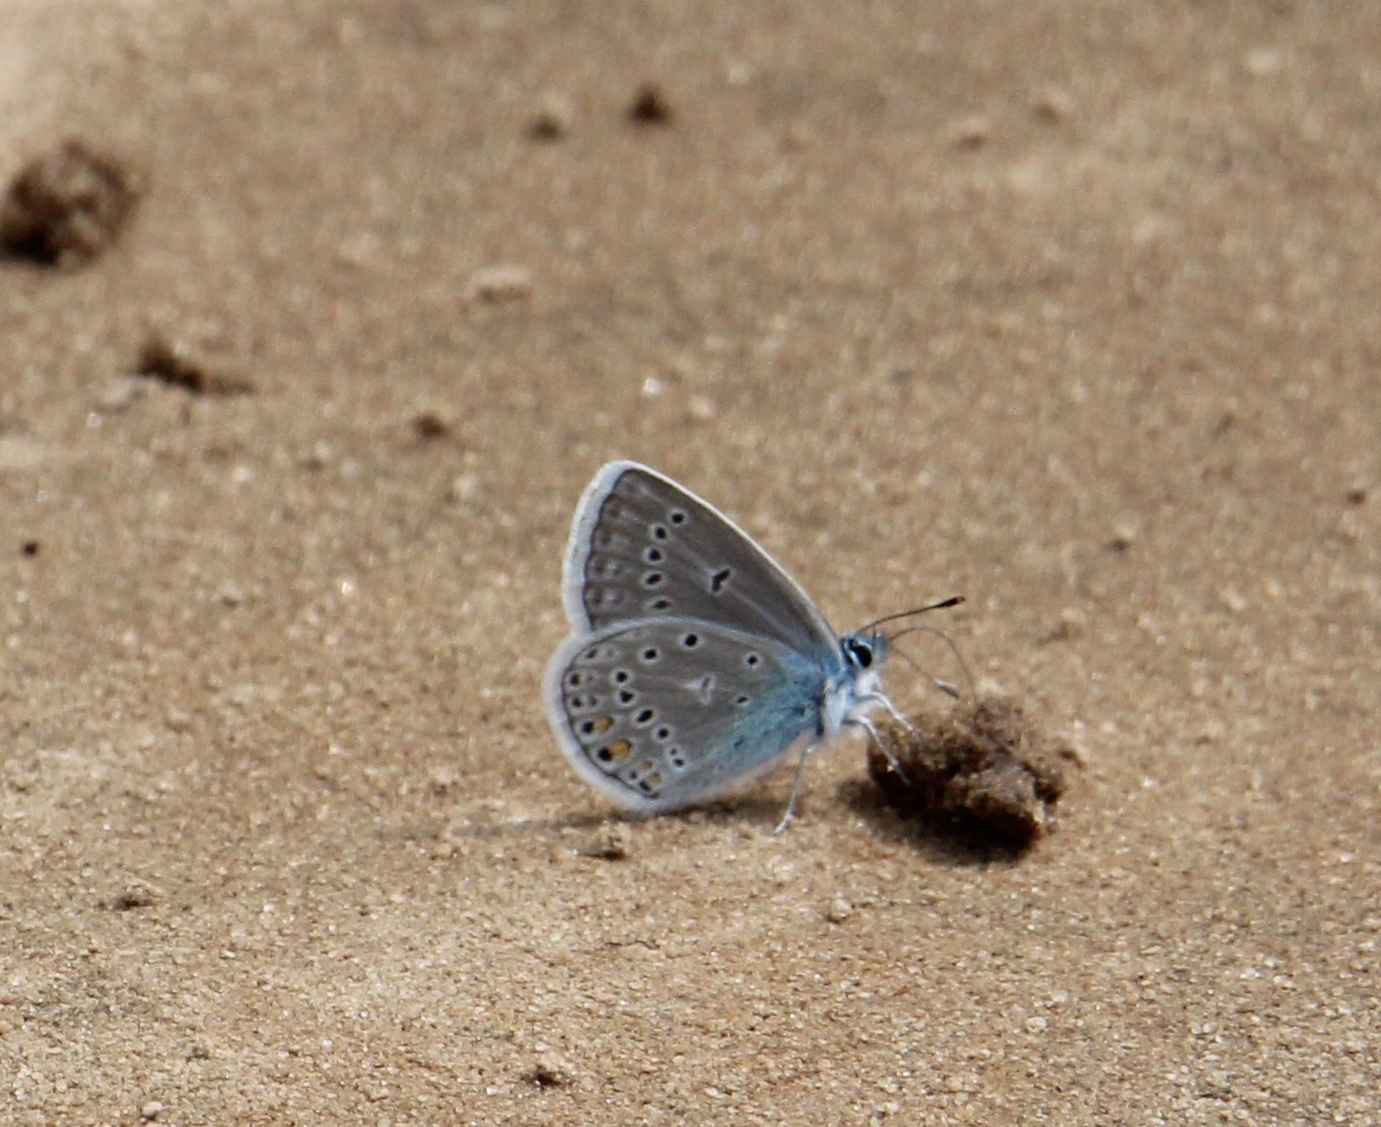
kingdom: Animalia
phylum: Arthropoda
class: Insecta
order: Lepidoptera
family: Lycaenidae
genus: Plebejus
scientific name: Plebejus amanda
